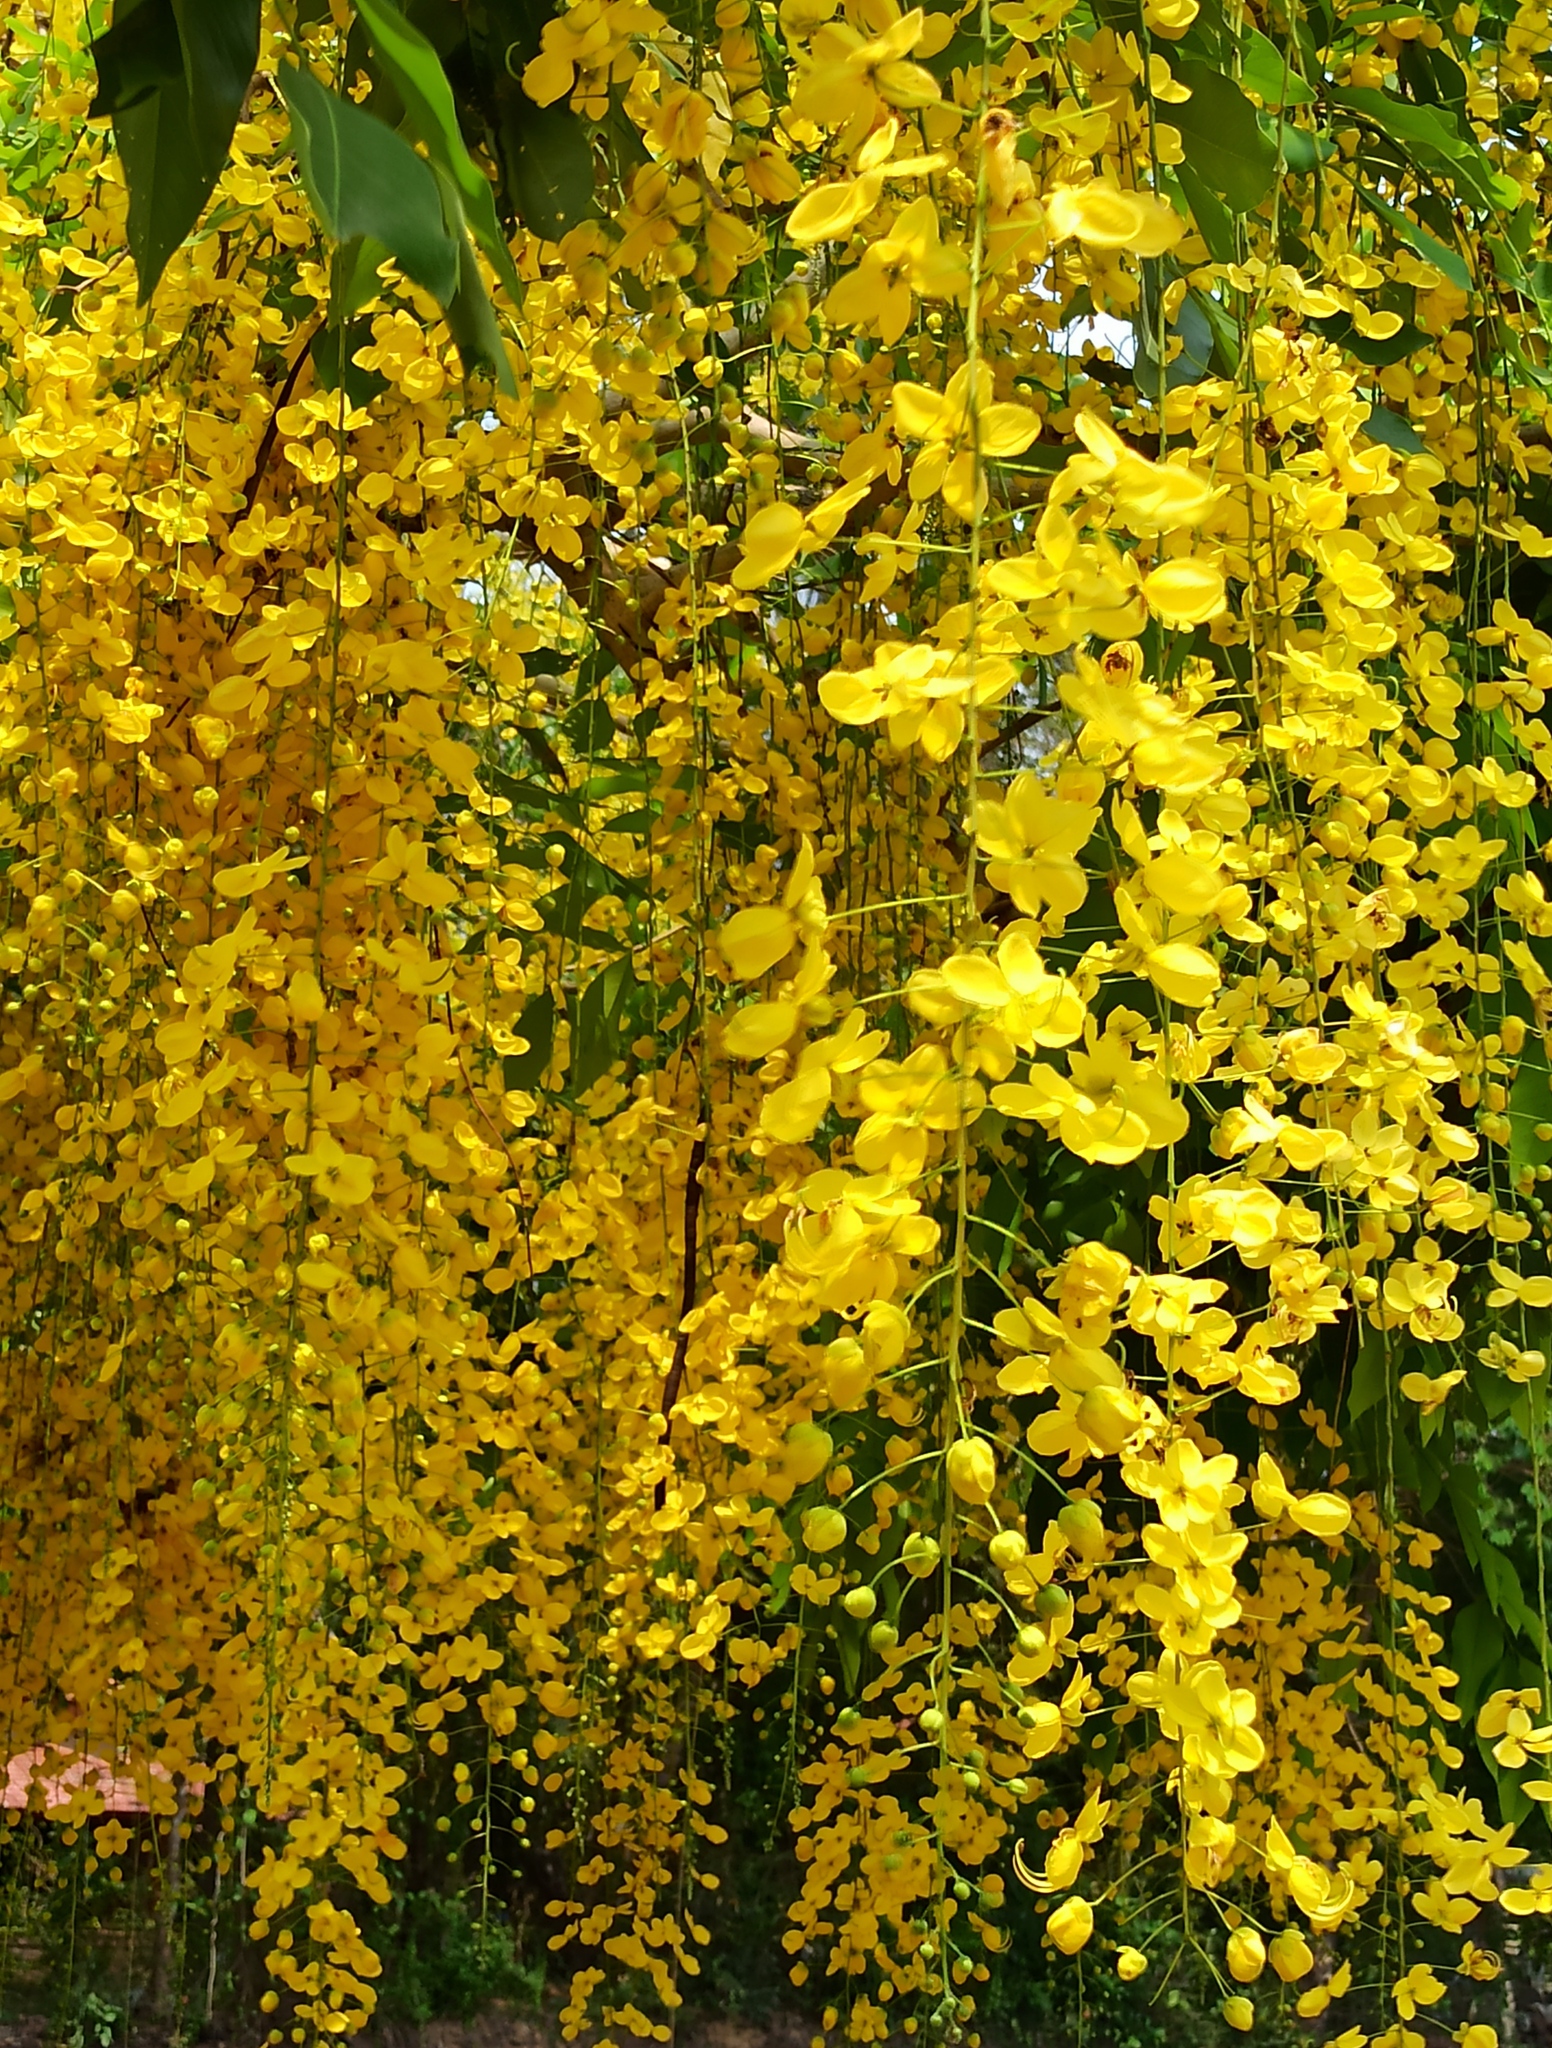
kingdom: Plantae
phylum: Tracheophyta
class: Magnoliopsida
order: Fabales
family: Fabaceae
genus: Cassia
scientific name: Cassia fistula
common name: Golden shower
